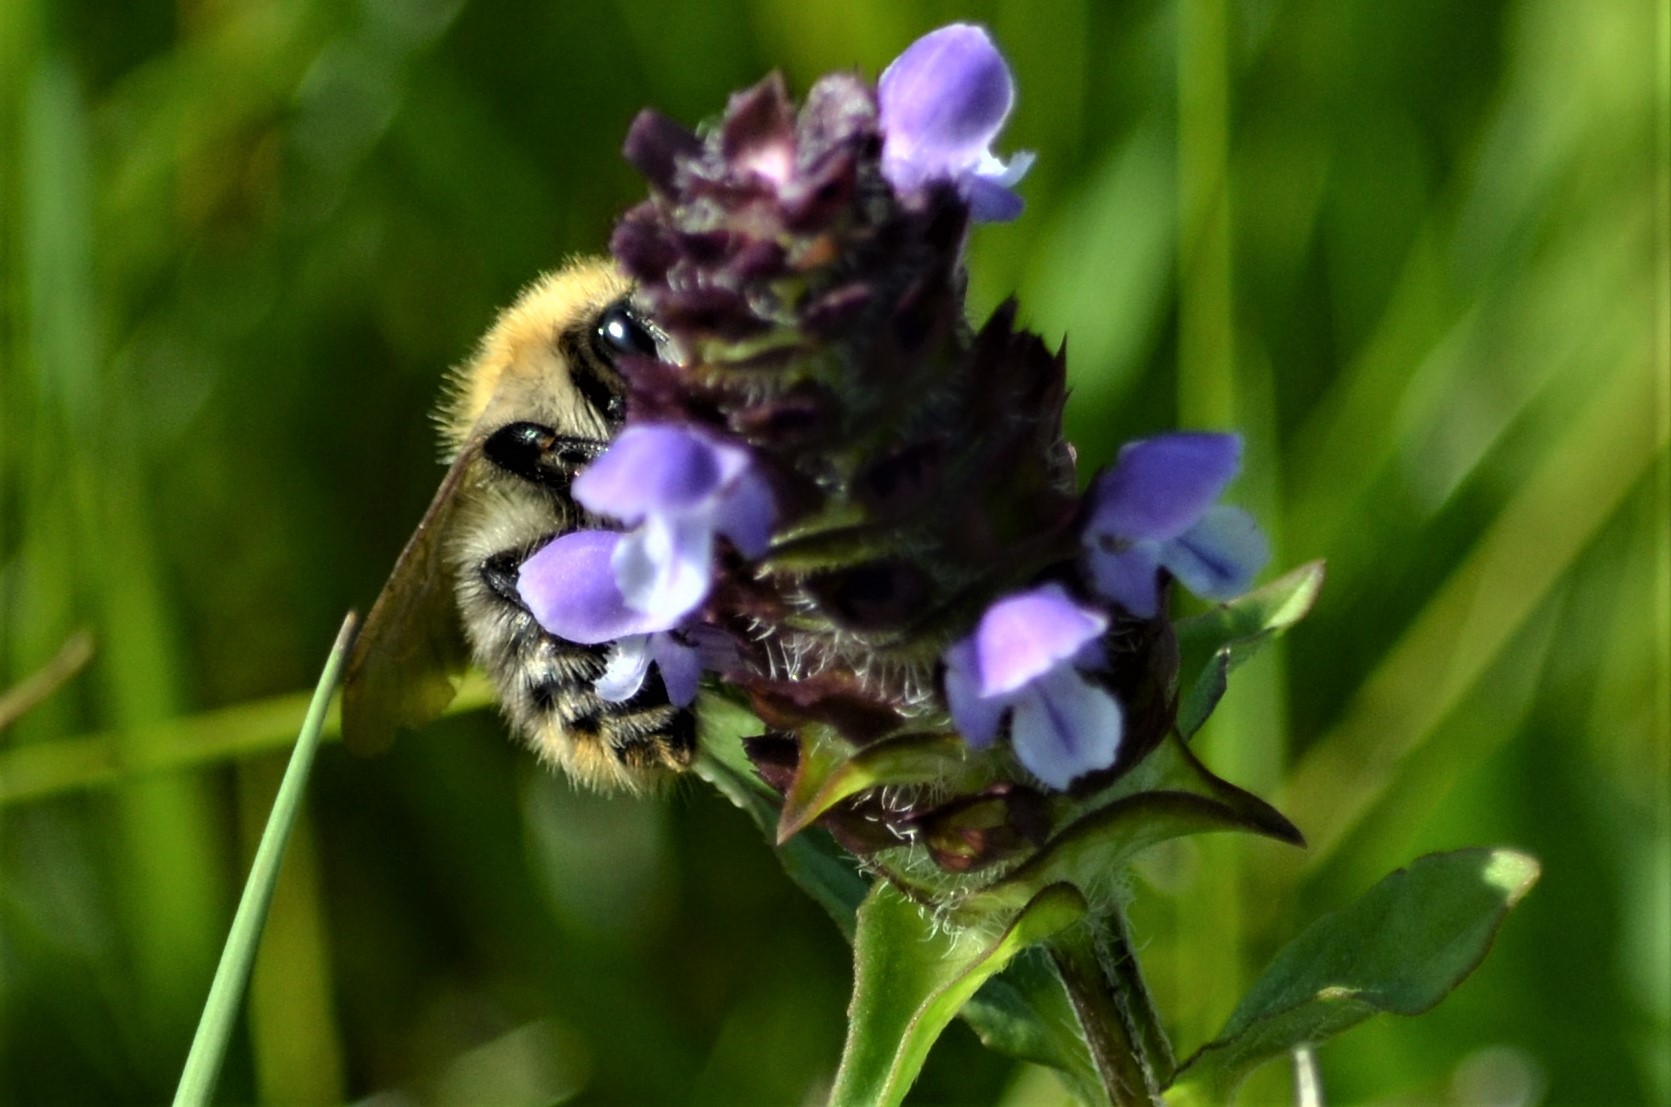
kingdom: Animalia
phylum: Arthropoda
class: Insecta
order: Hymenoptera
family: Apidae
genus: Bombus
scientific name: Bombus pascuorum
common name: Common carder bee
